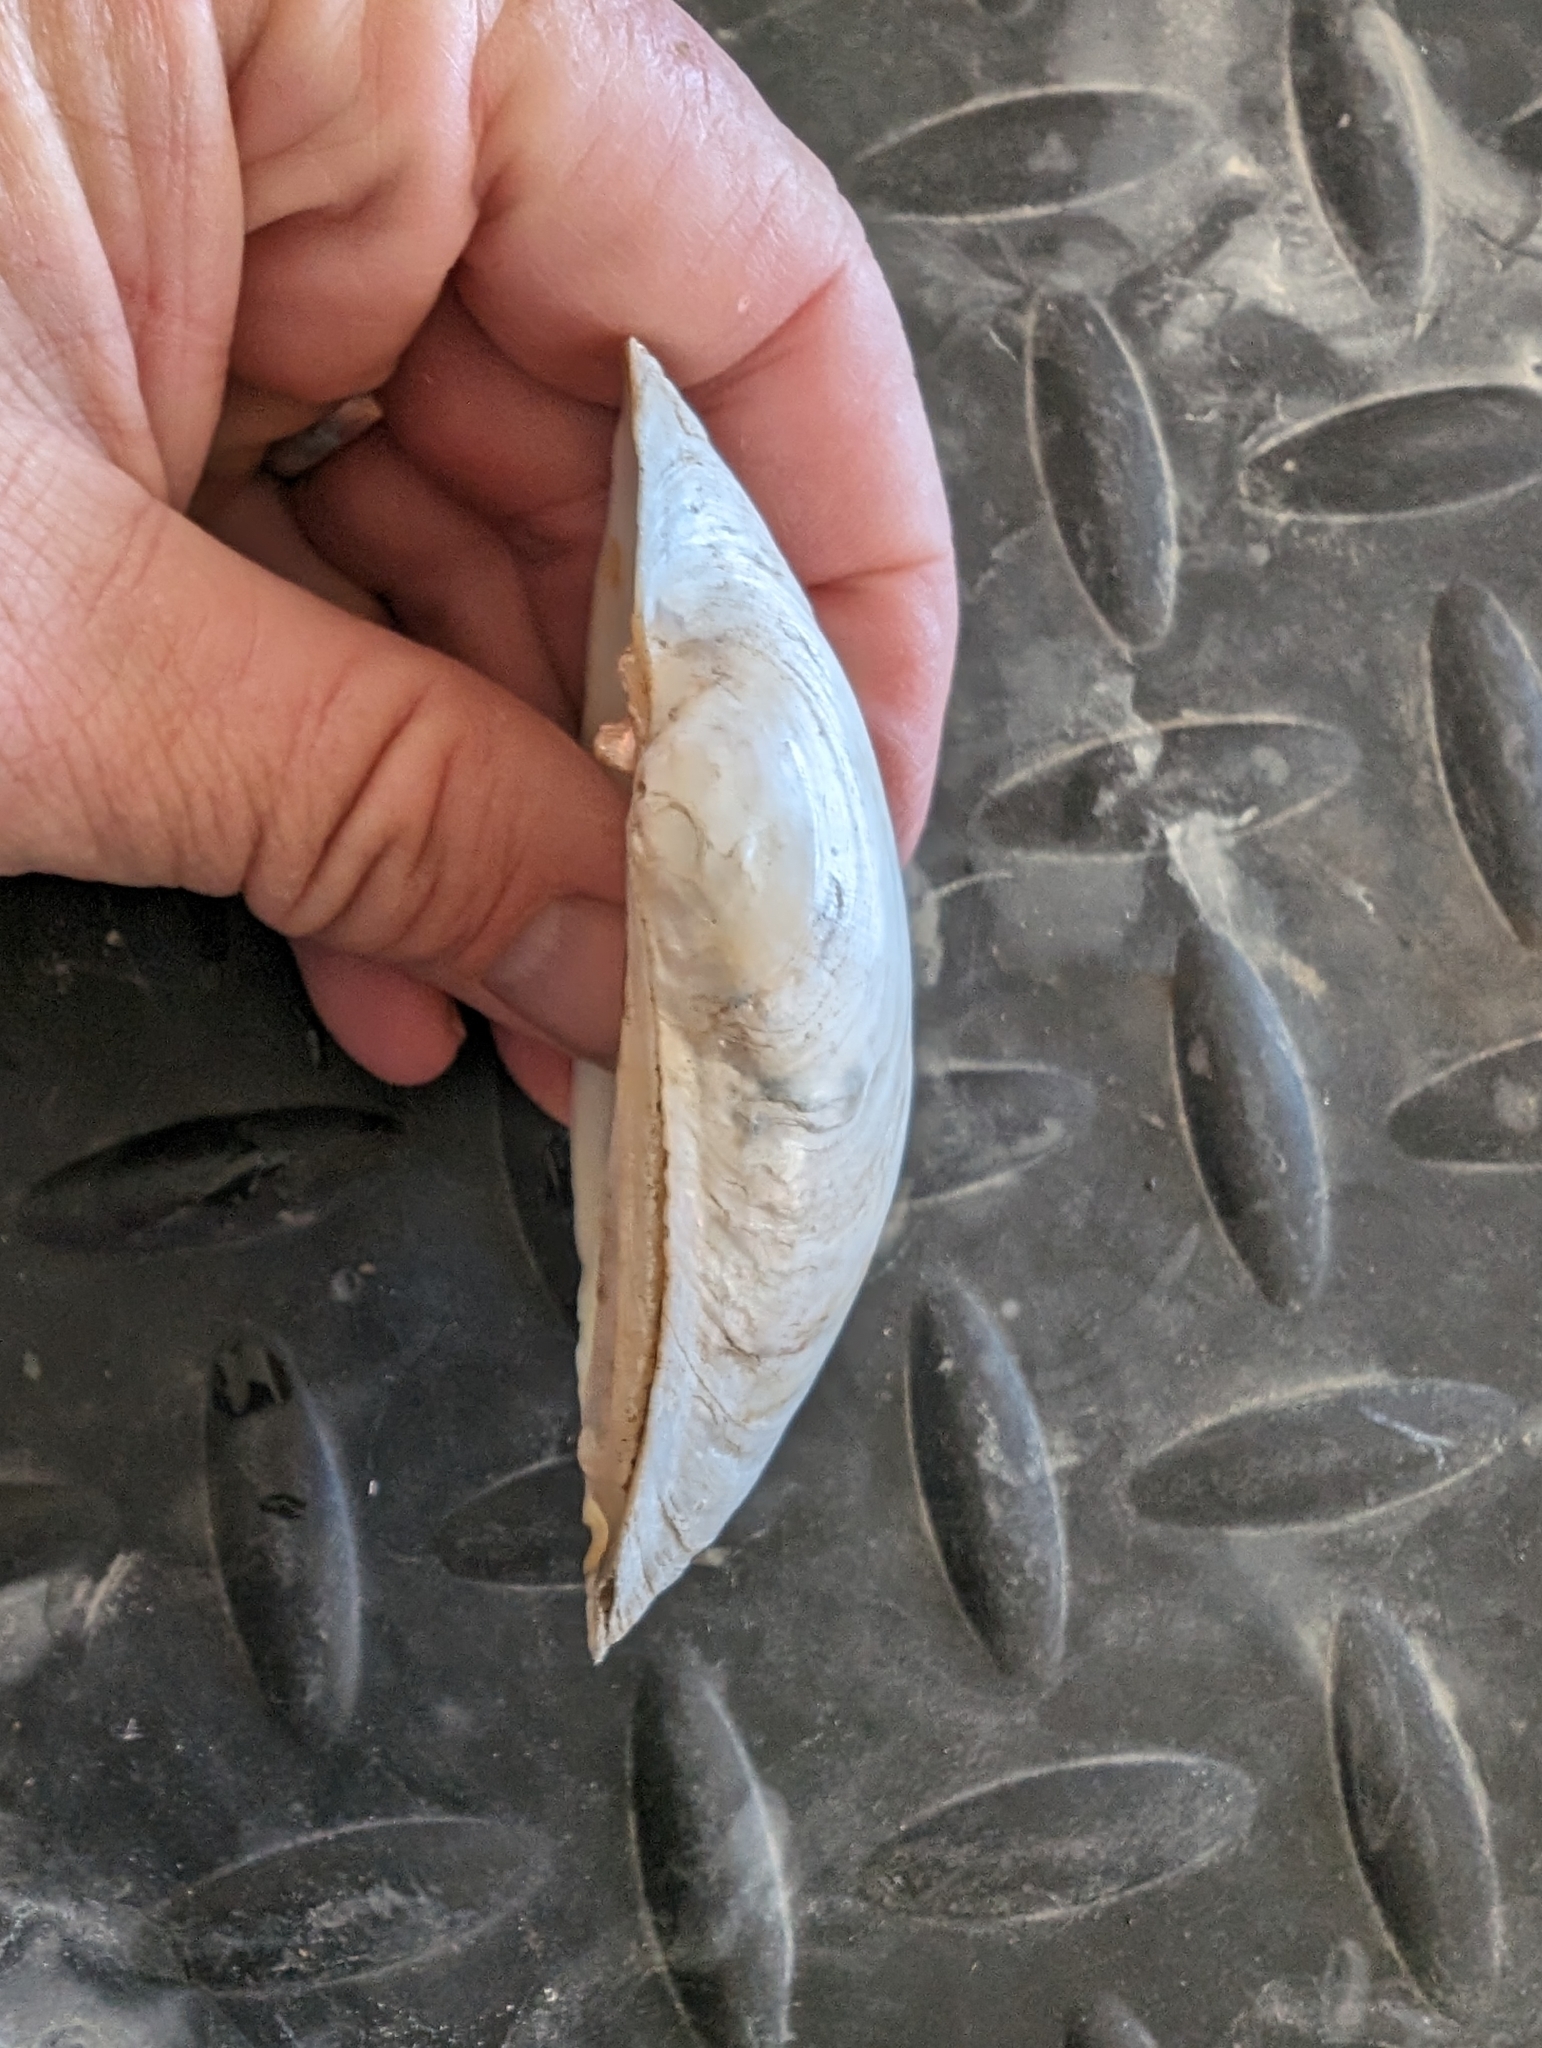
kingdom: Animalia
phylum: Mollusca
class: Bivalvia
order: Unionida
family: Unionidae
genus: Lampsilis
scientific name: Lampsilis siliquoidea
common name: Fatmucket
